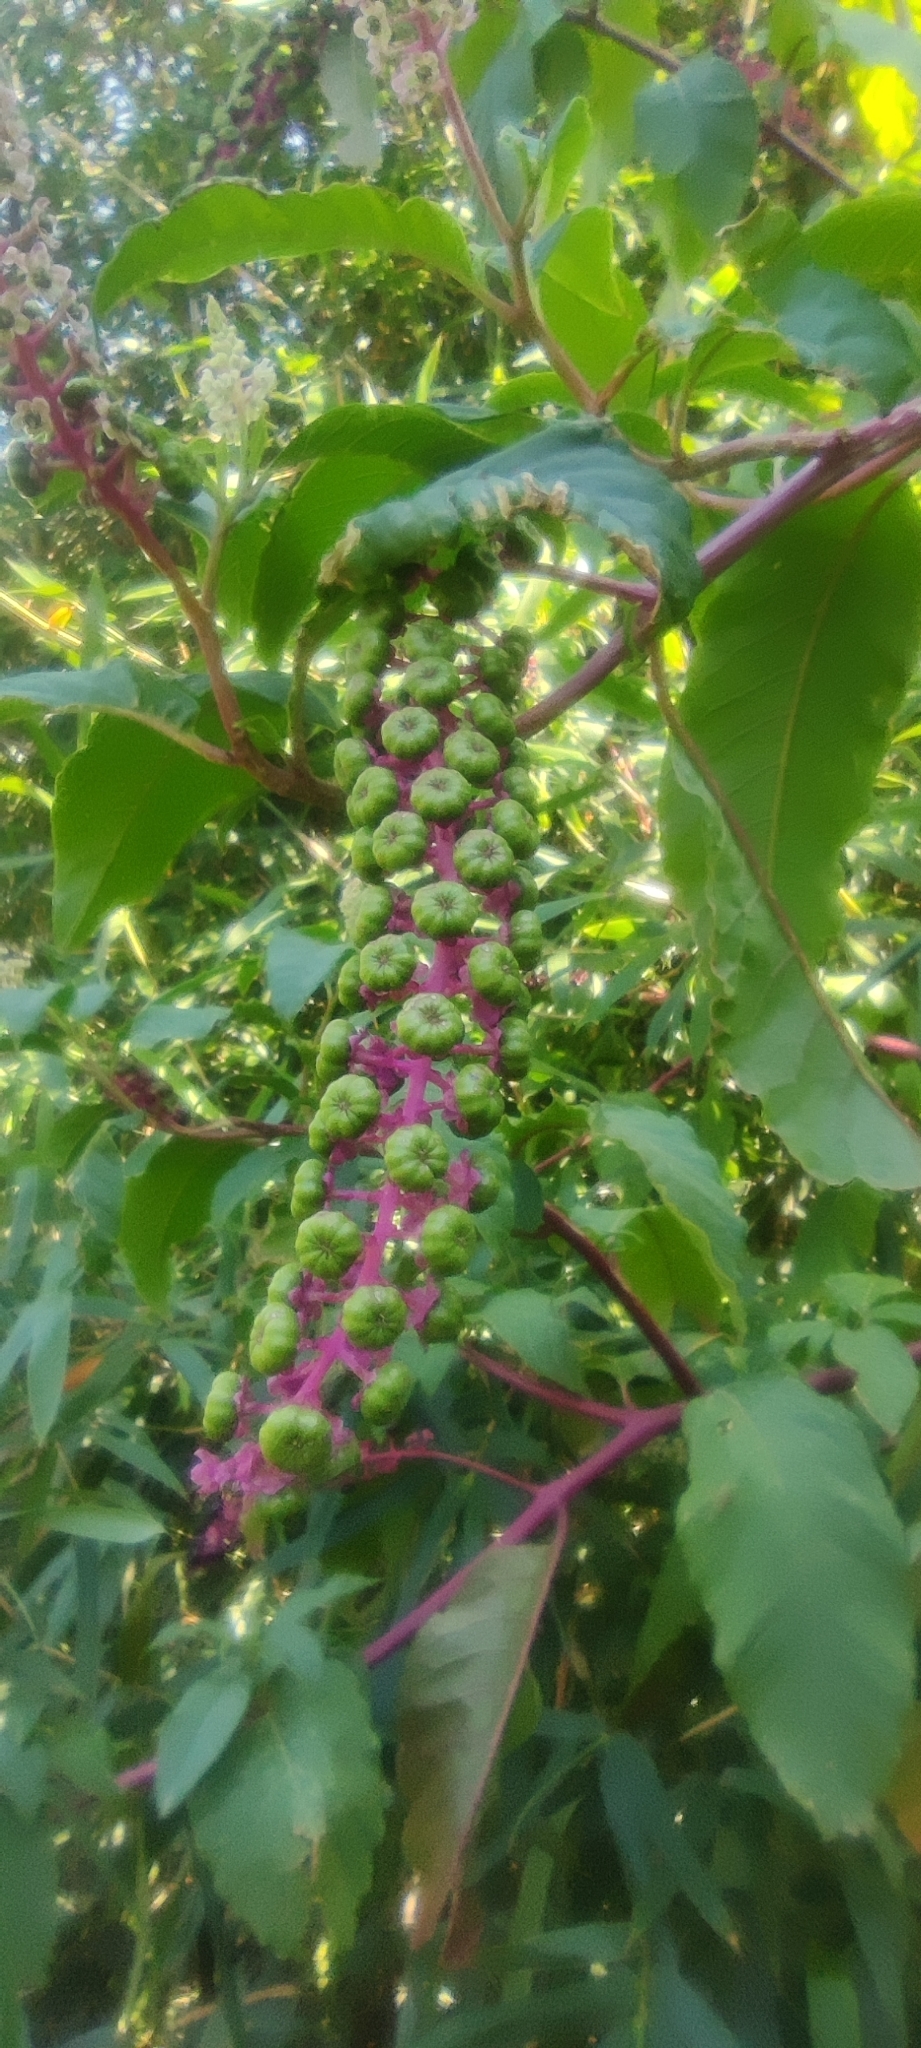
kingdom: Plantae
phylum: Tracheophyta
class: Magnoliopsida
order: Caryophyllales
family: Phytolaccaceae
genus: Phytolacca
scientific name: Phytolacca americana
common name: American pokeweed
